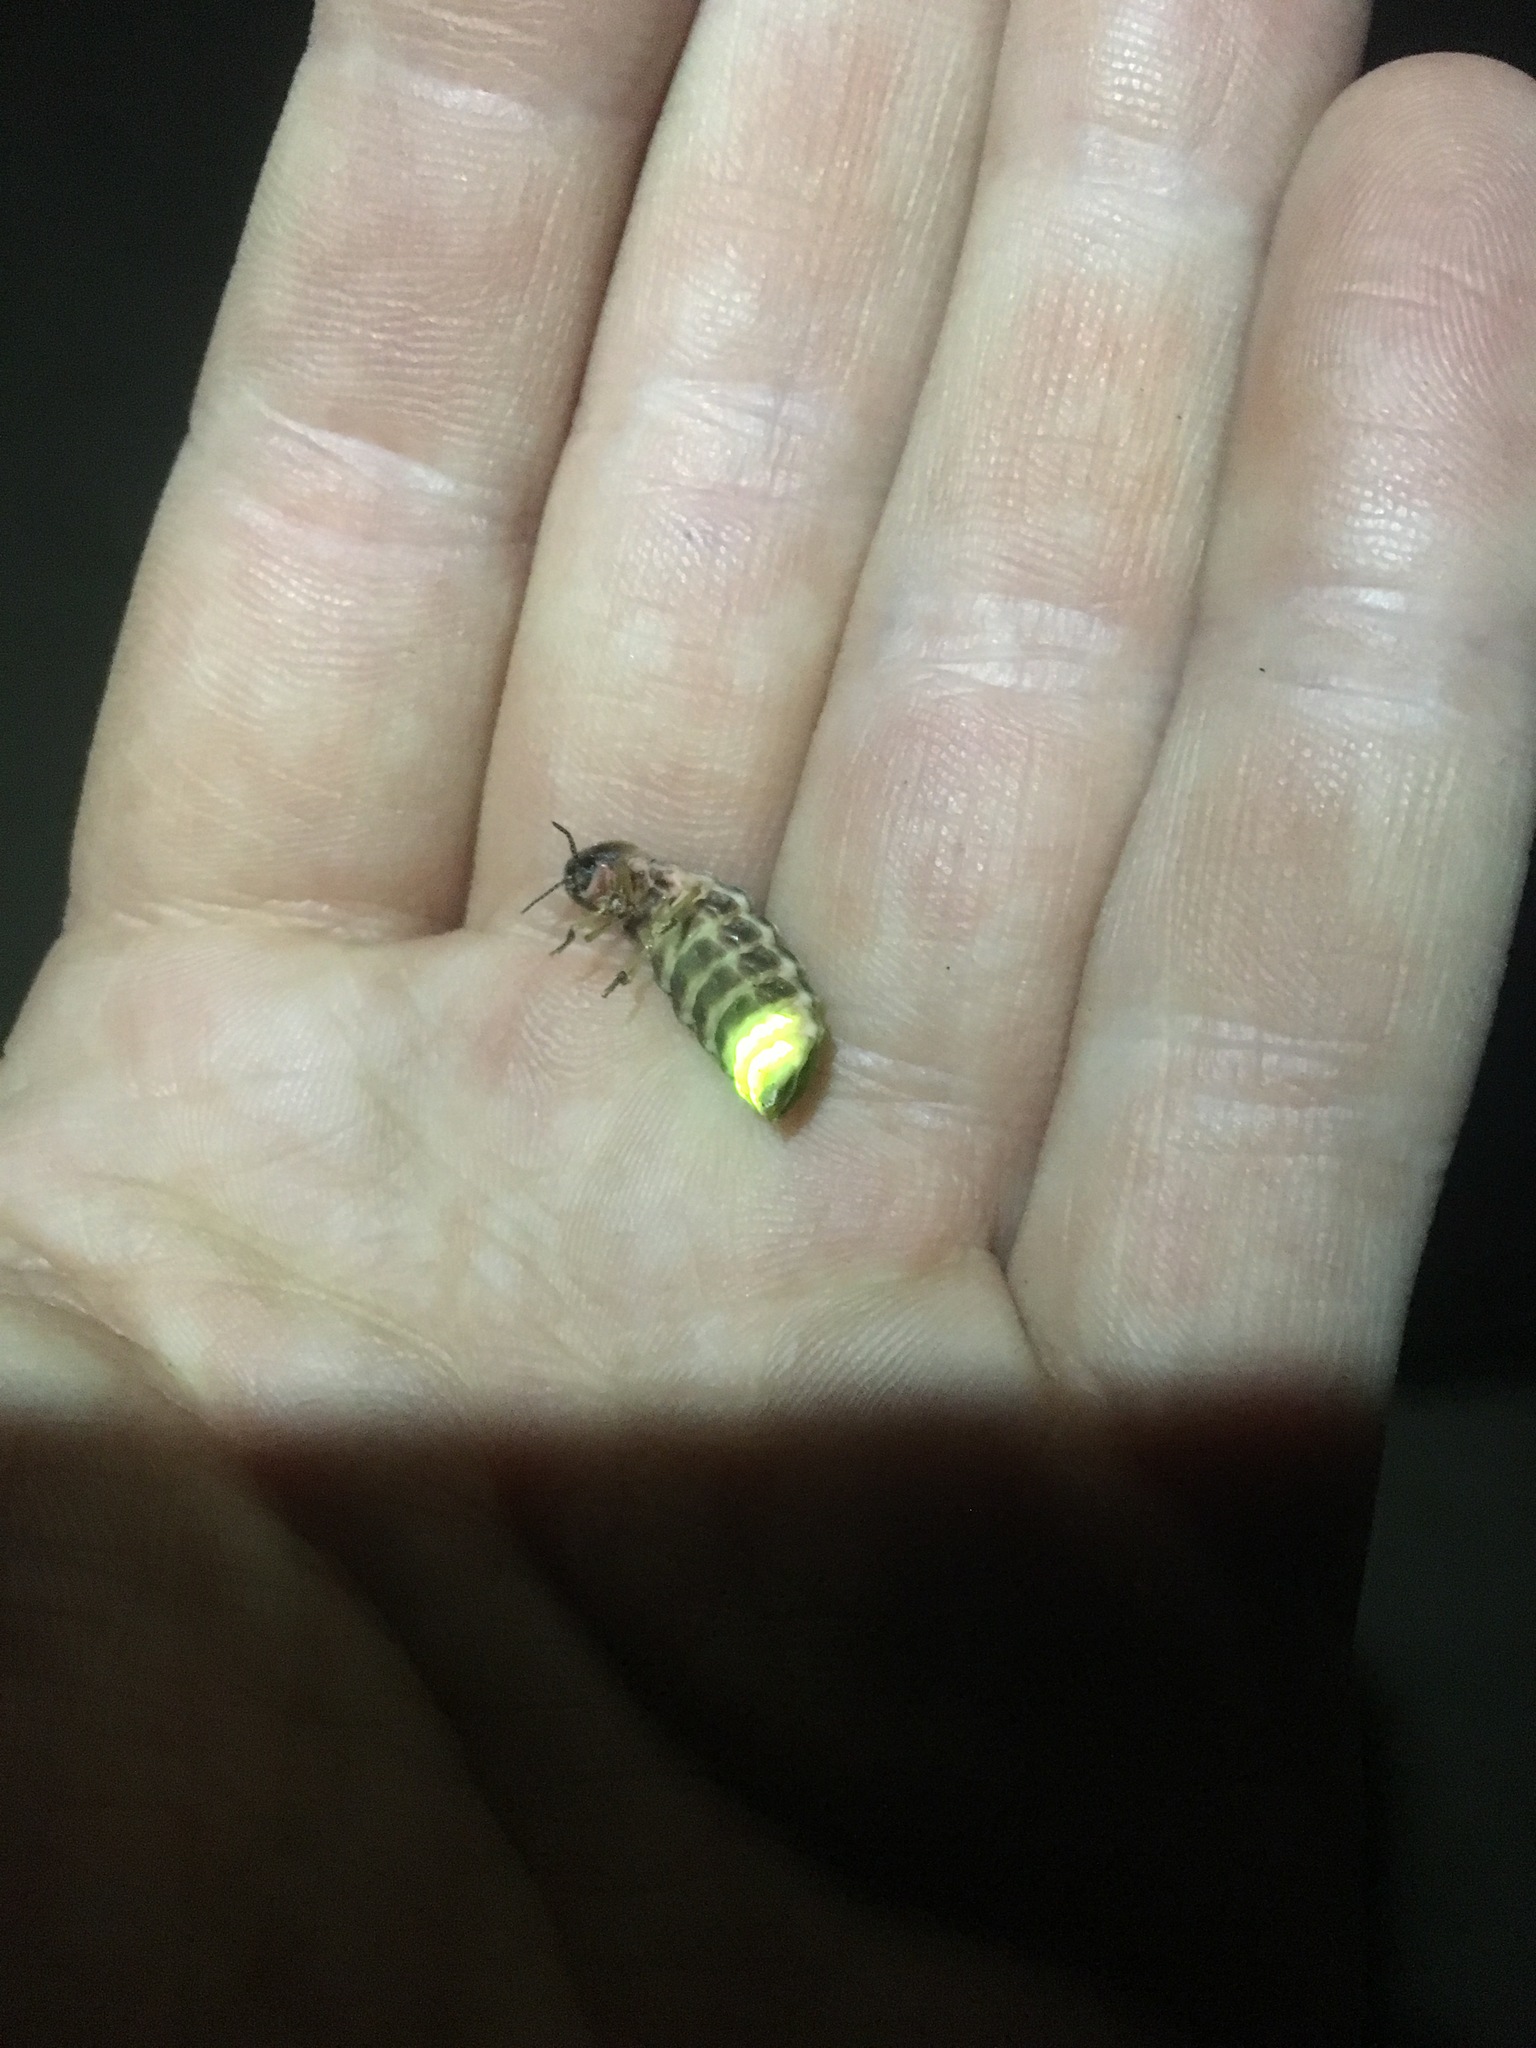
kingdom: Animalia
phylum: Arthropoda
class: Insecta
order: Coleoptera
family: Lampyridae
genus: Lampyris
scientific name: Lampyris noctiluca
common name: Glow-worm
